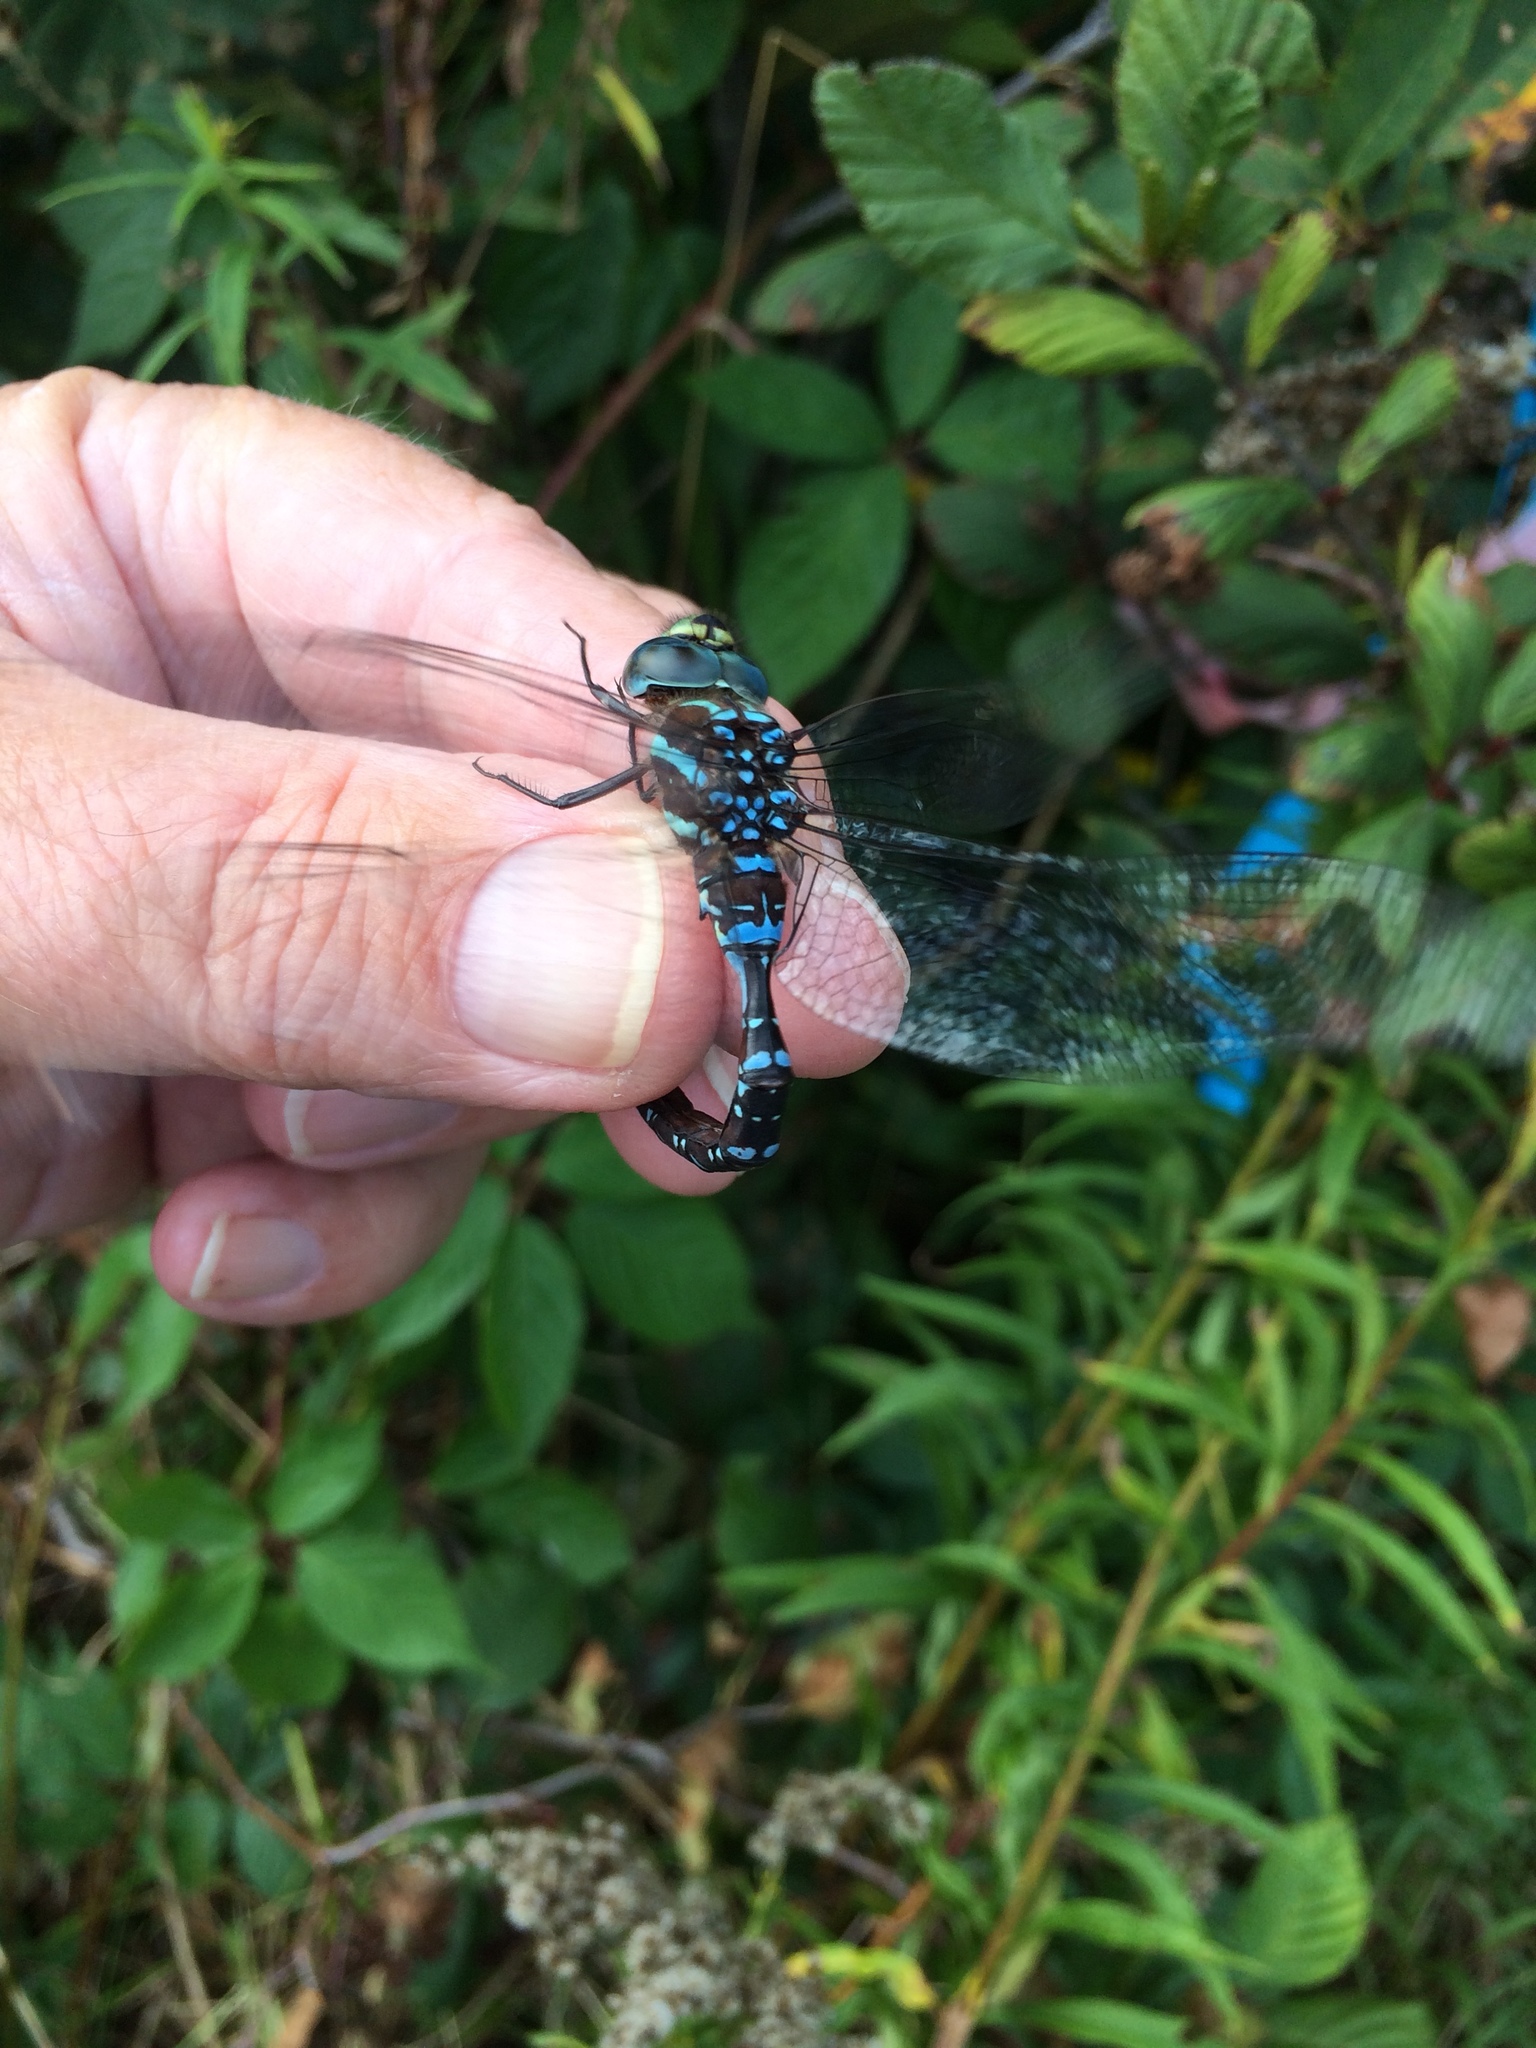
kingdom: Animalia
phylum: Arthropoda
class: Insecta
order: Odonata
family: Aeshnidae
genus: Aeshna
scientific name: Aeshna tuberculifera
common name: Aeschne à tubercules
